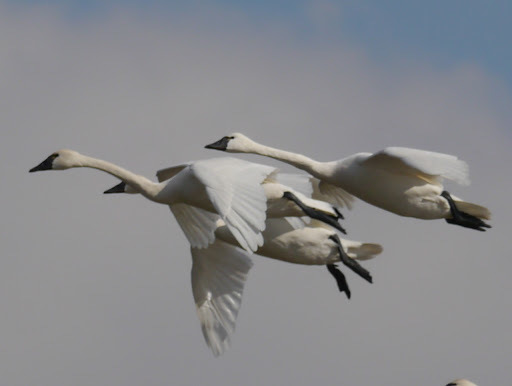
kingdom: Animalia
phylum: Chordata
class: Aves
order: Anseriformes
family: Anatidae
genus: Cygnus
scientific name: Cygnus columbianus
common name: Tundra swan
